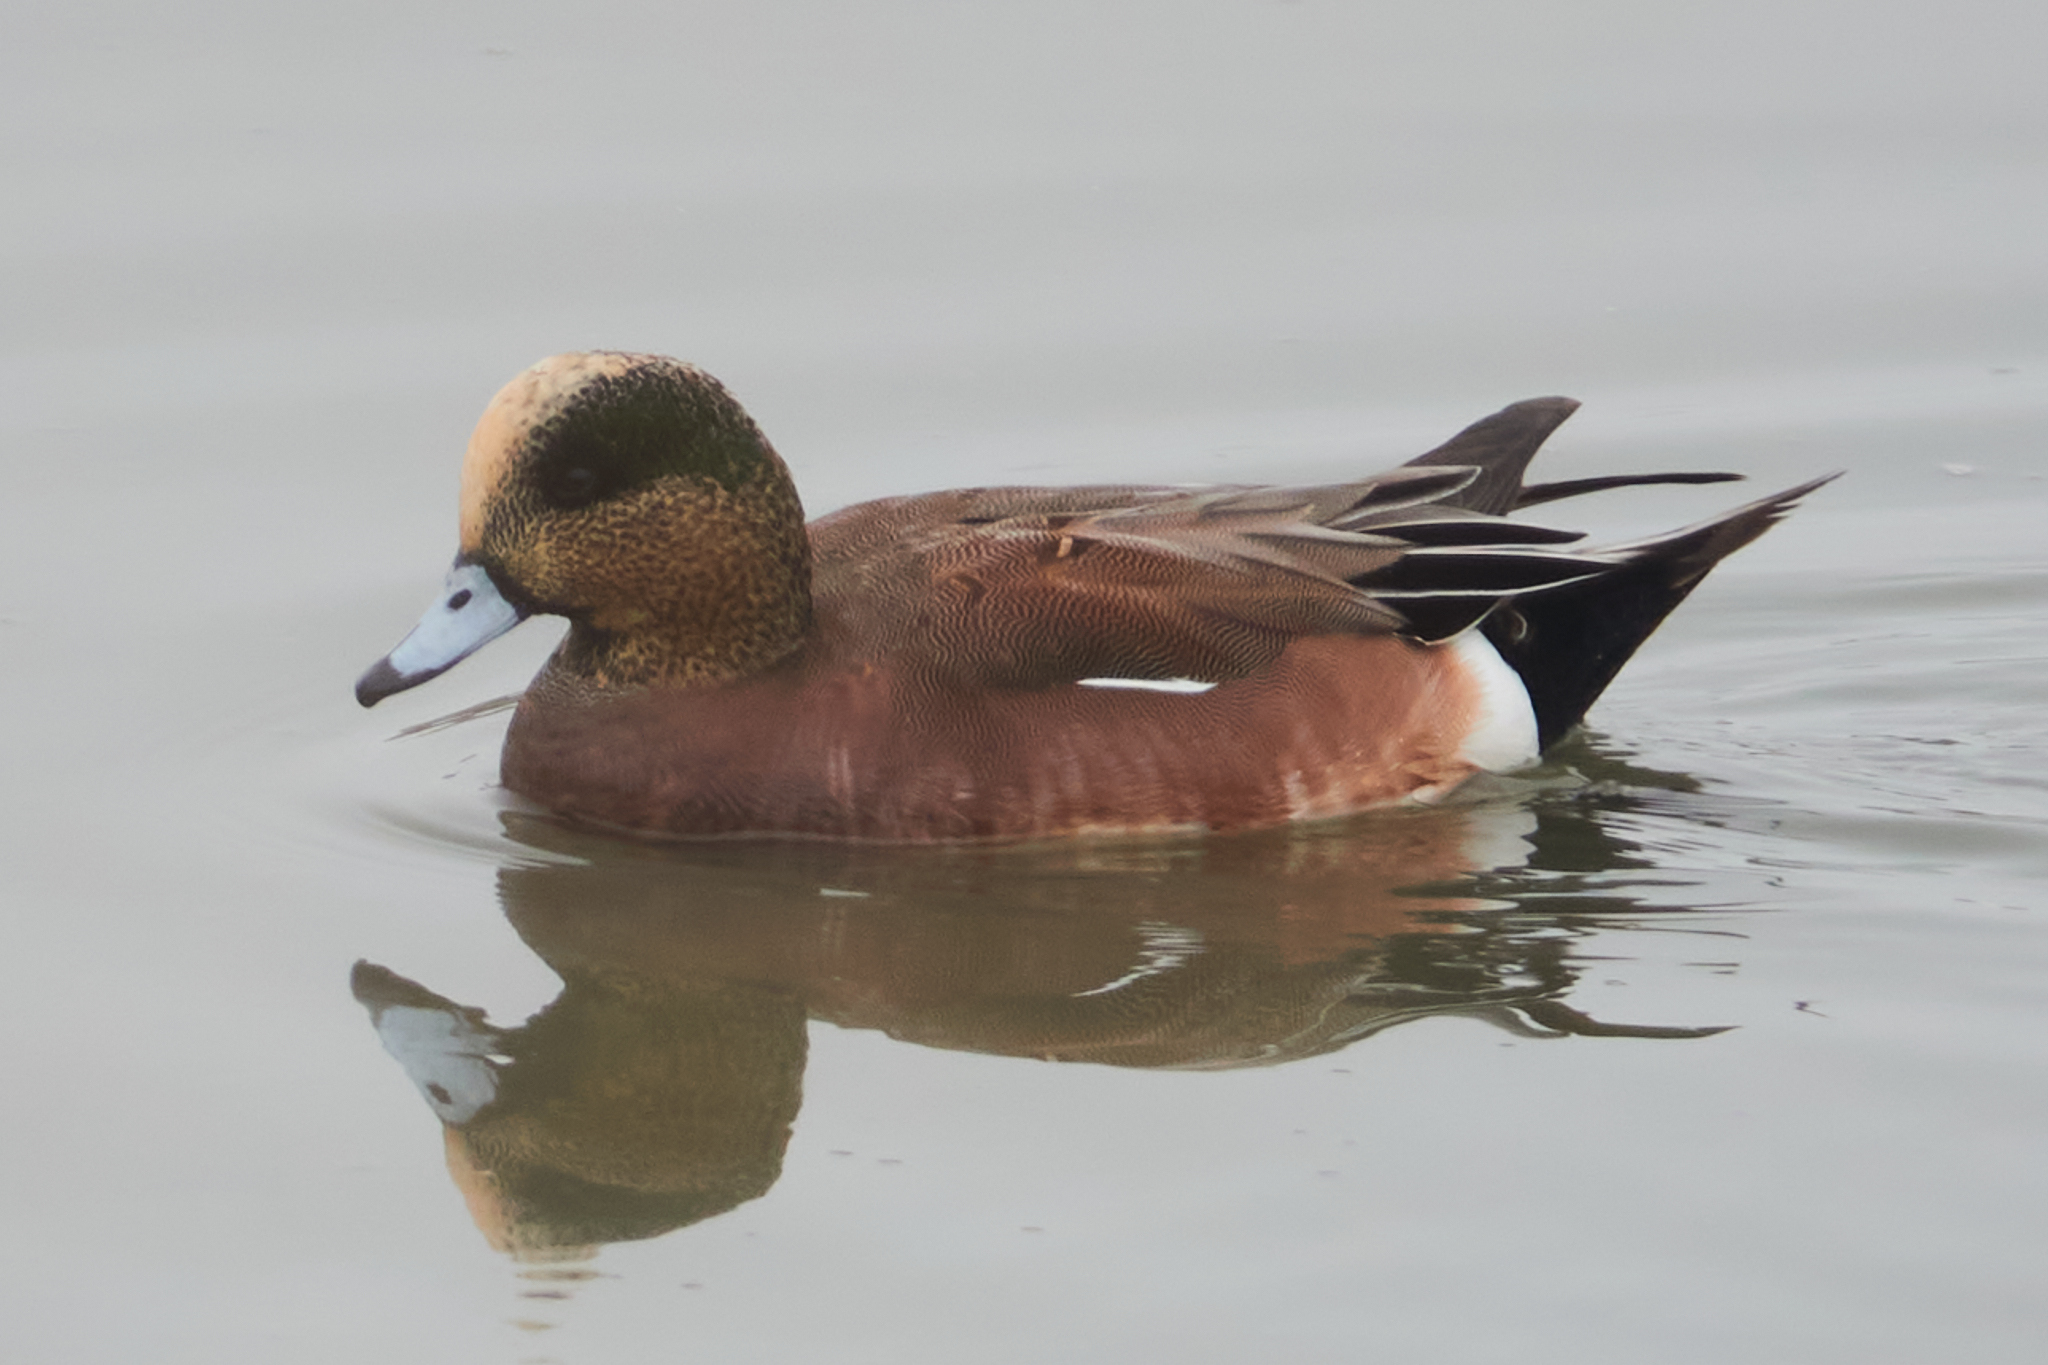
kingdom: Animalia
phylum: Chordata
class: Aves
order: Anseriformes
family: Anatidae
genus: Mareca
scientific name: Mareca americana
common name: American wigeon
